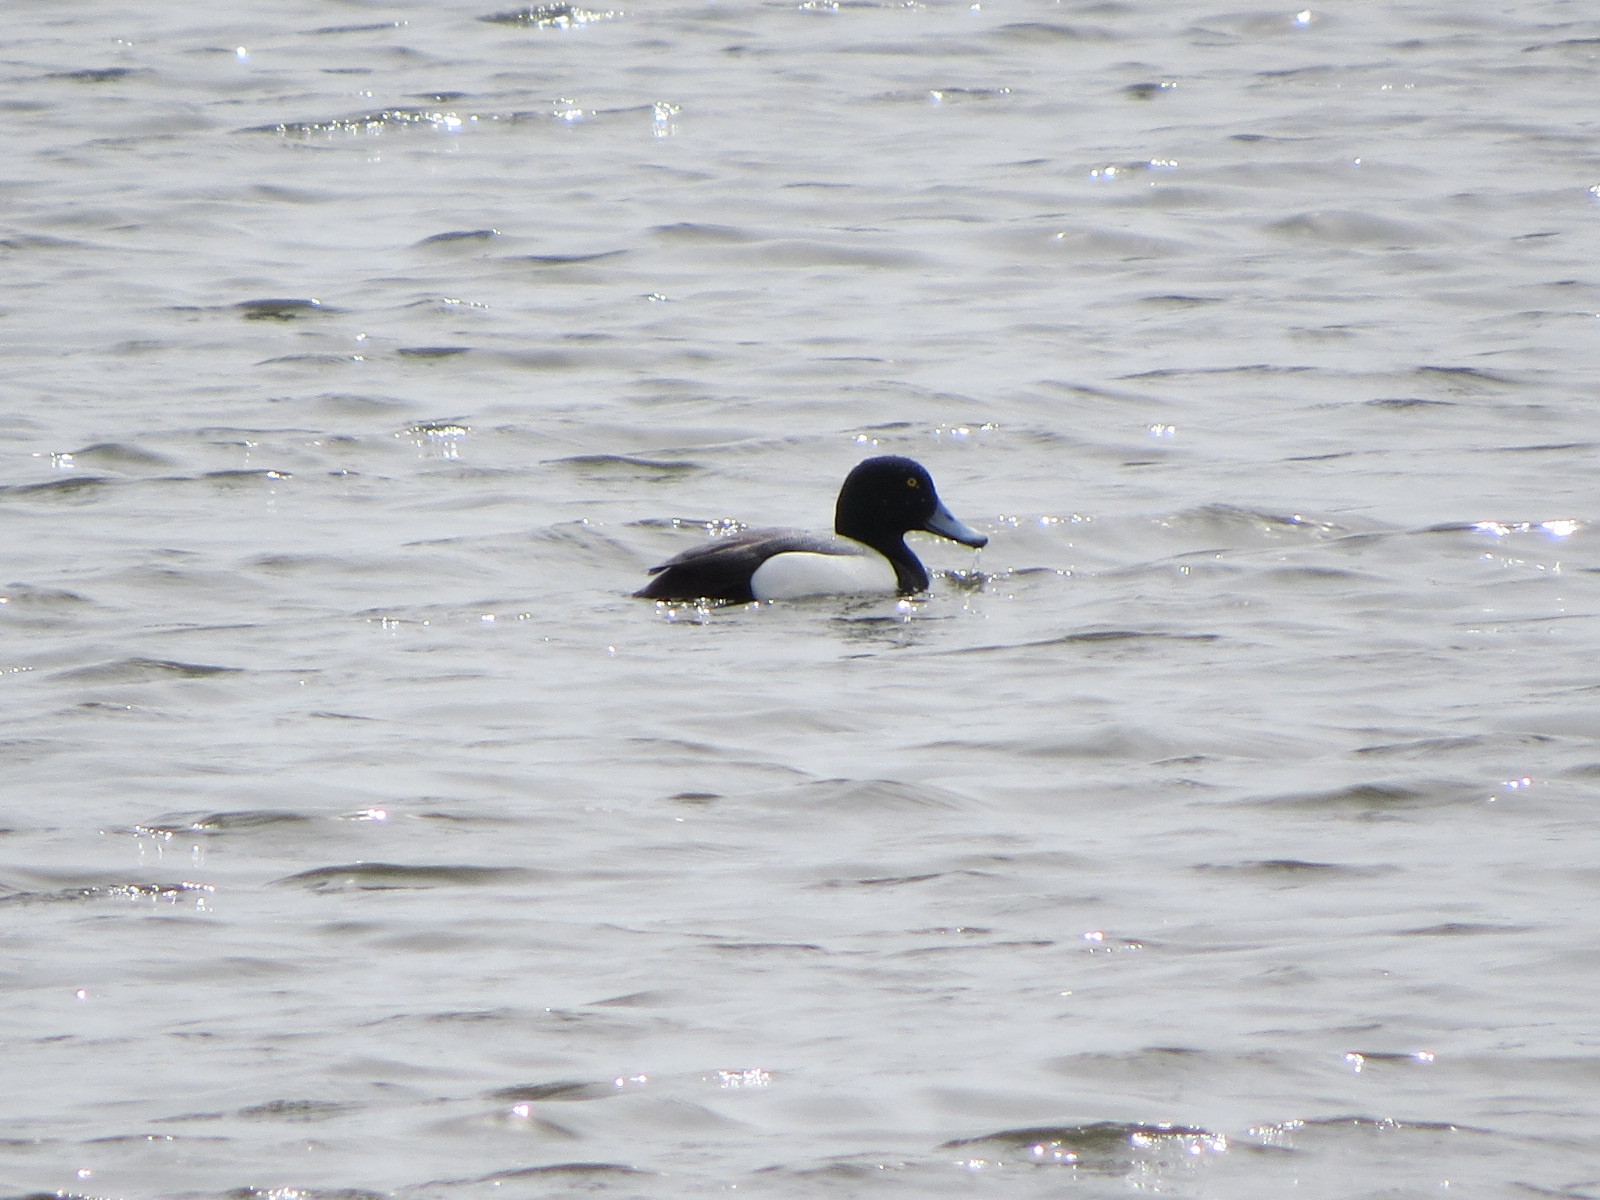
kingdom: Animalia
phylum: Chordata
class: Aves
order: Anseriformes
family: Anatidae
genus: Aythya
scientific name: Aythya marila
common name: Greater scaup
